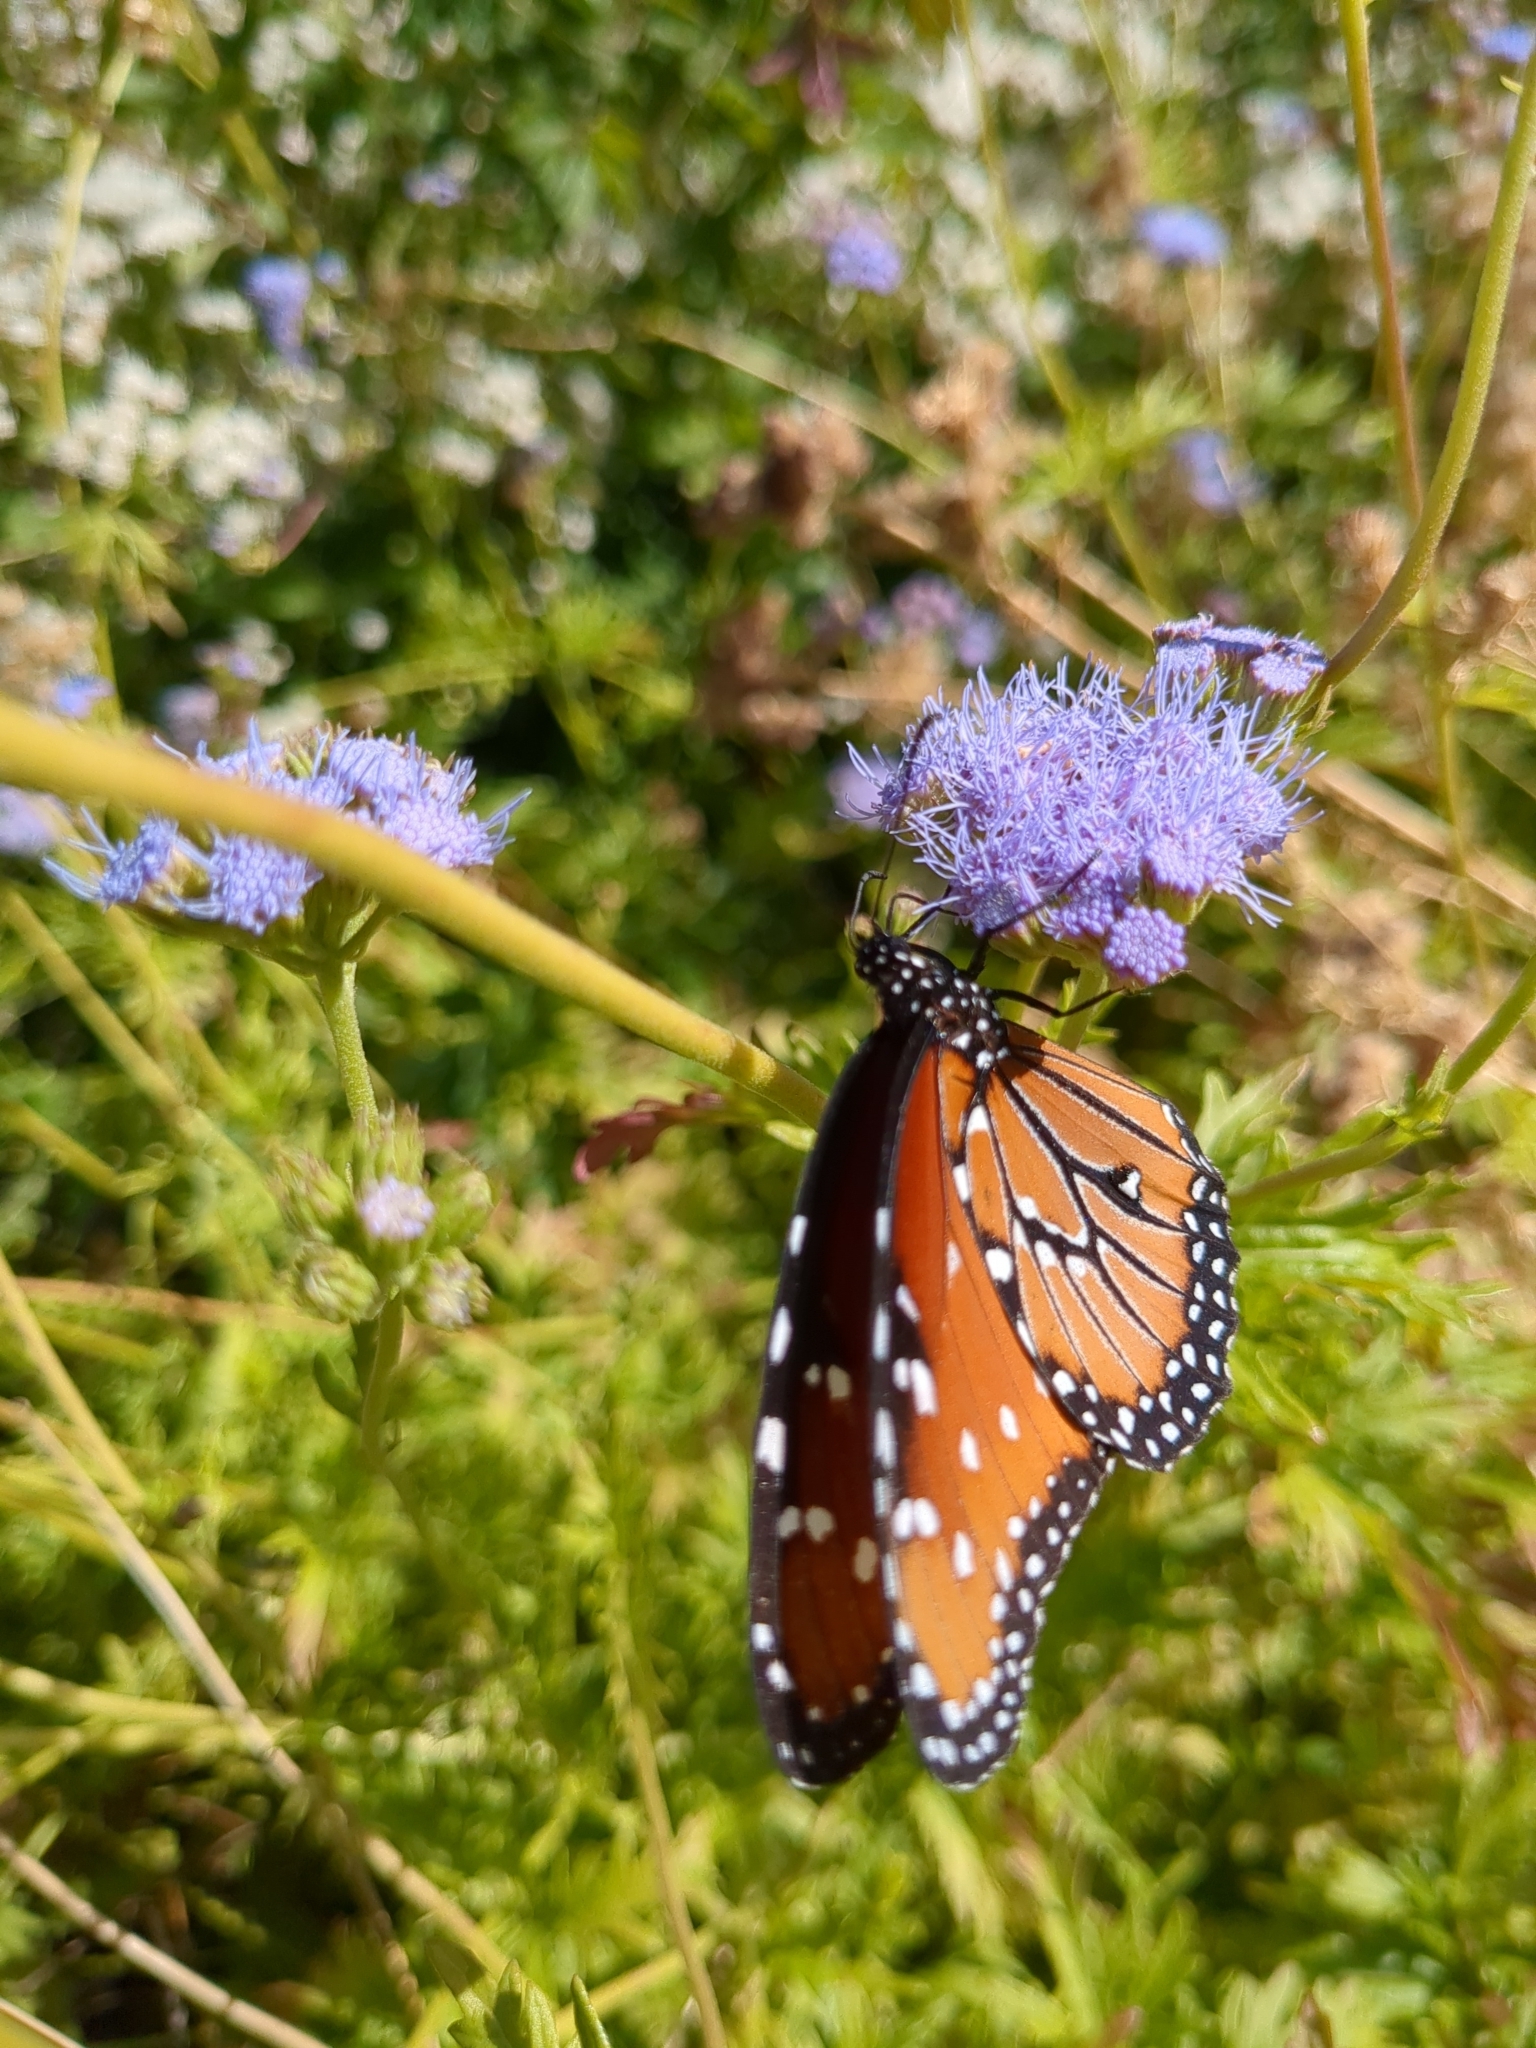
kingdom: Animalia
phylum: Arthropoda
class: Insecta
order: Lepidoptera
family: Nymphalidae
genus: Danaus
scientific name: Danaus gilippus
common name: Queen
